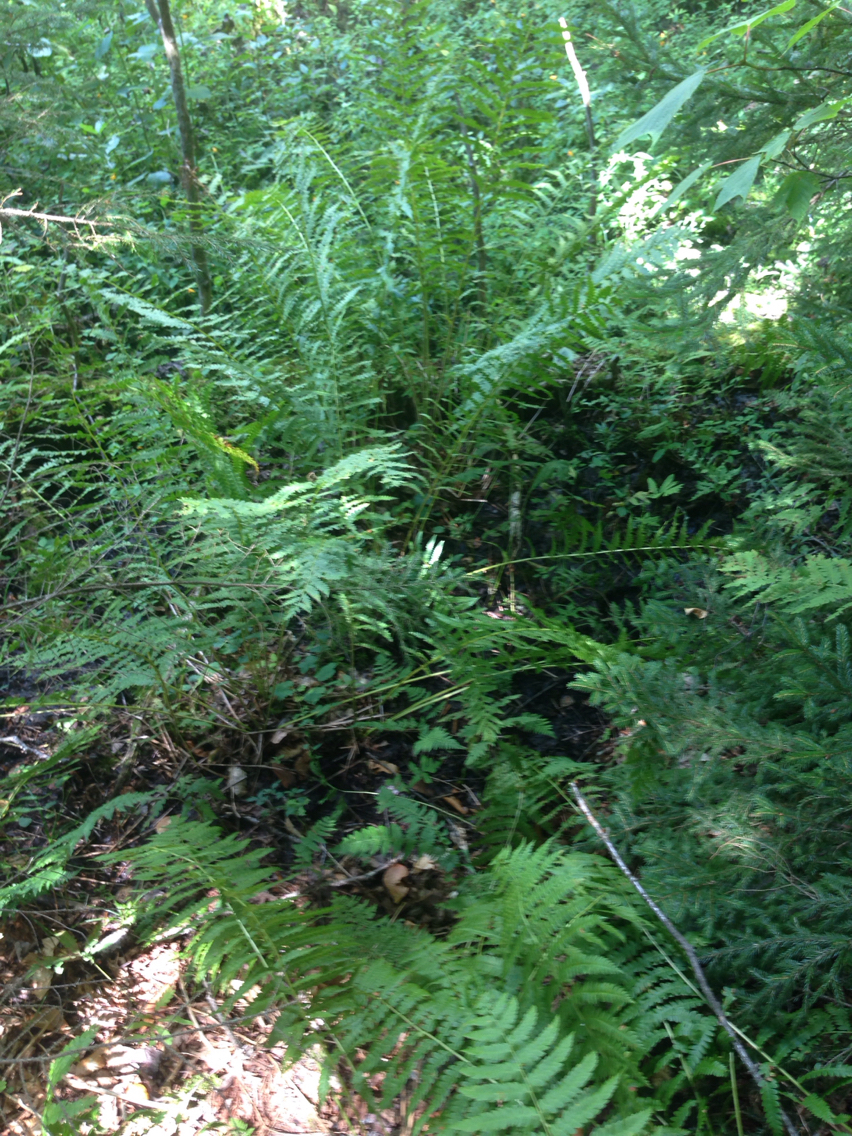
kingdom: Plantae
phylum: Tracheophyta
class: Polypodiopsida
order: Osmundales
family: Osmundaceae
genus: Osmundastrum
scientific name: Osmundastrum cinnamomeum
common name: Cinnamon fern
